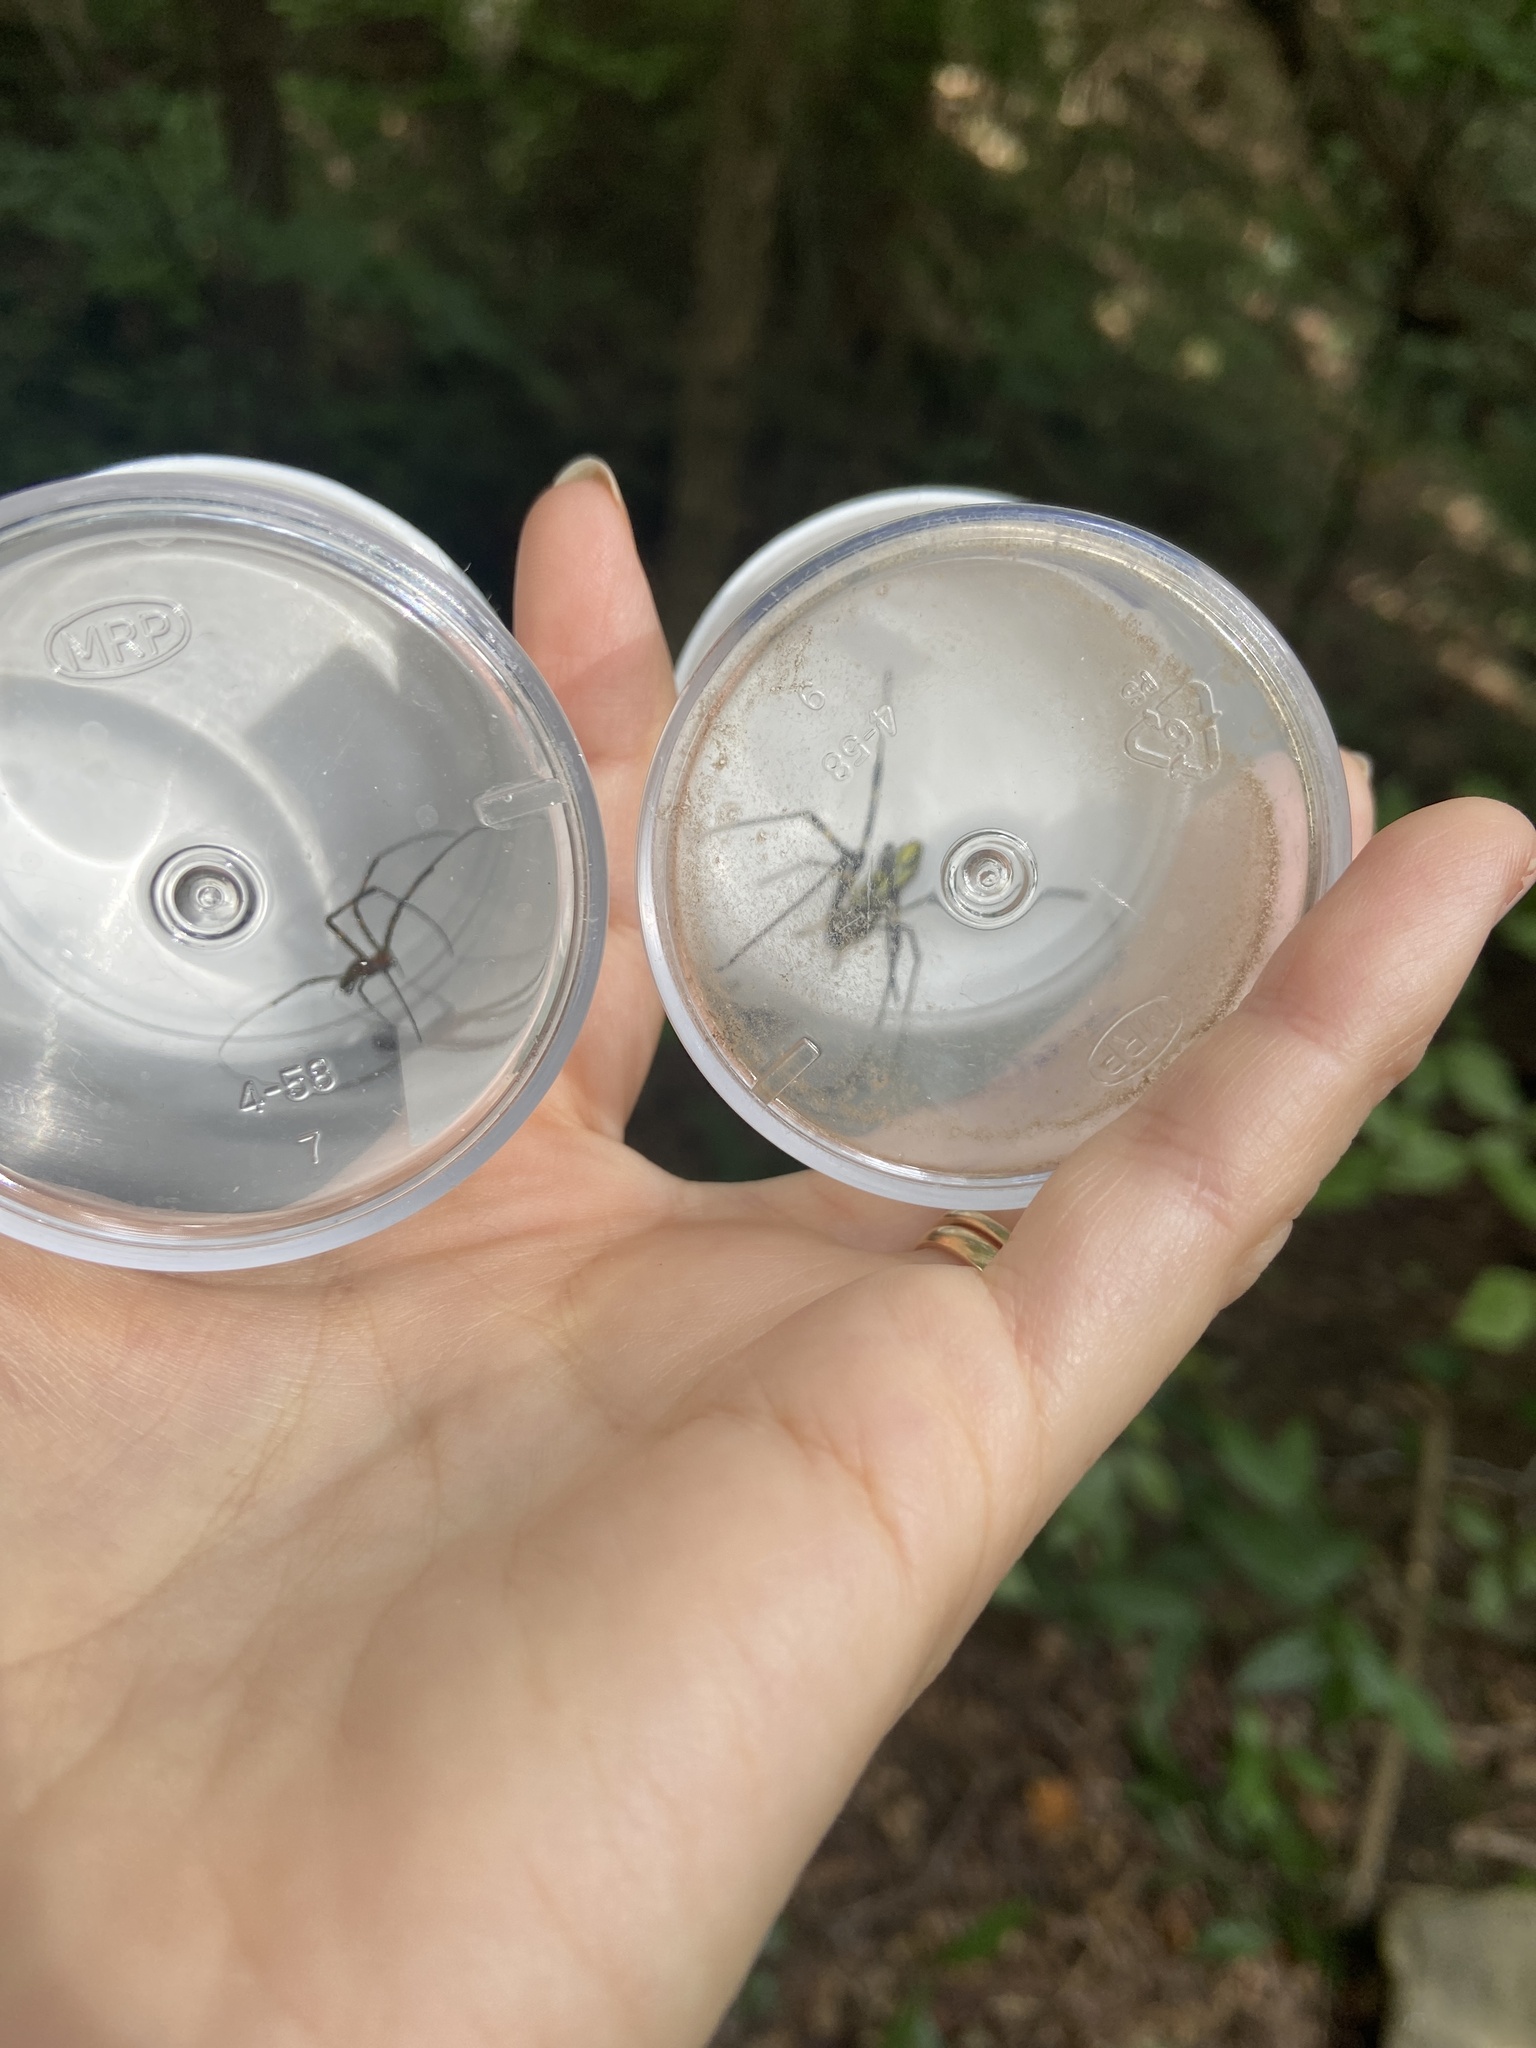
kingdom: Animalia
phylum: Arthropoda
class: Arachnida
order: Araneae
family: Araneidae
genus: Trichonephila
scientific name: Trichonephila clavata
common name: Jorō spider
